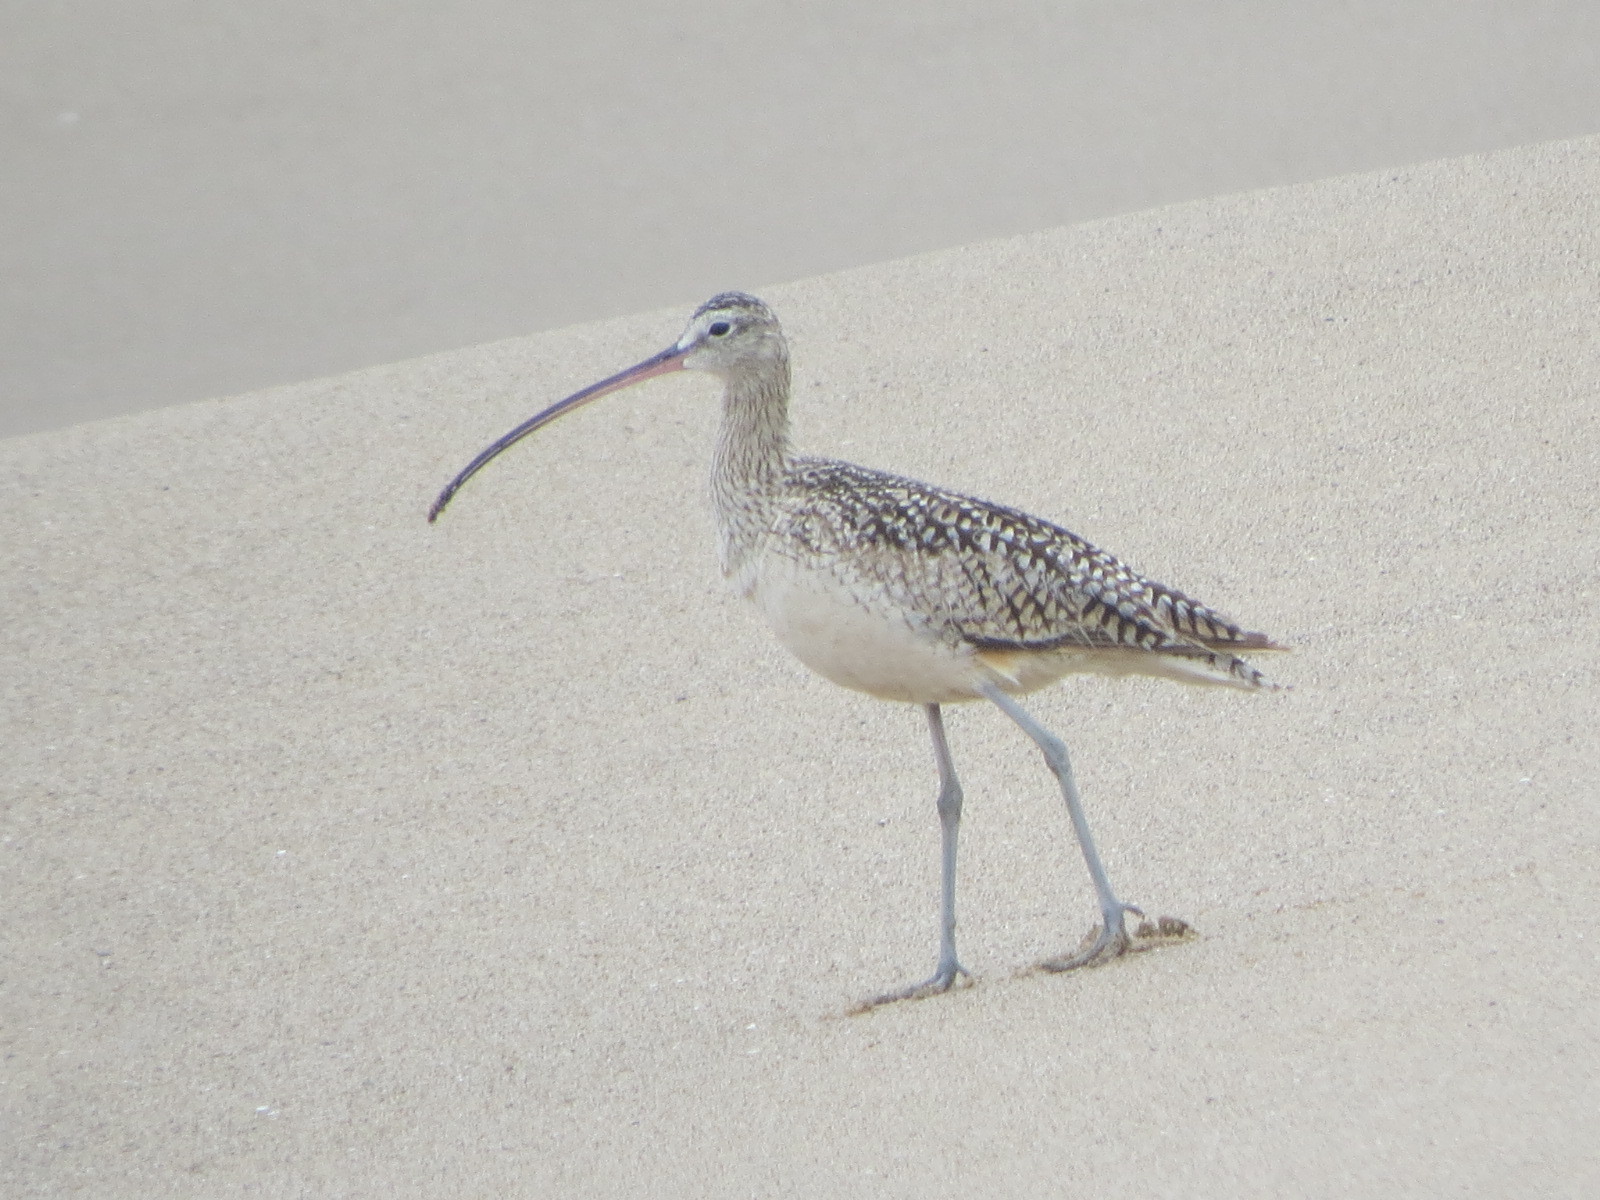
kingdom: Animalia
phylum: Chordata
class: Aves
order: Charadriiformes
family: Scolopacidae
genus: Numenius
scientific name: Numenius americanus
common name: Long-billed curlew
